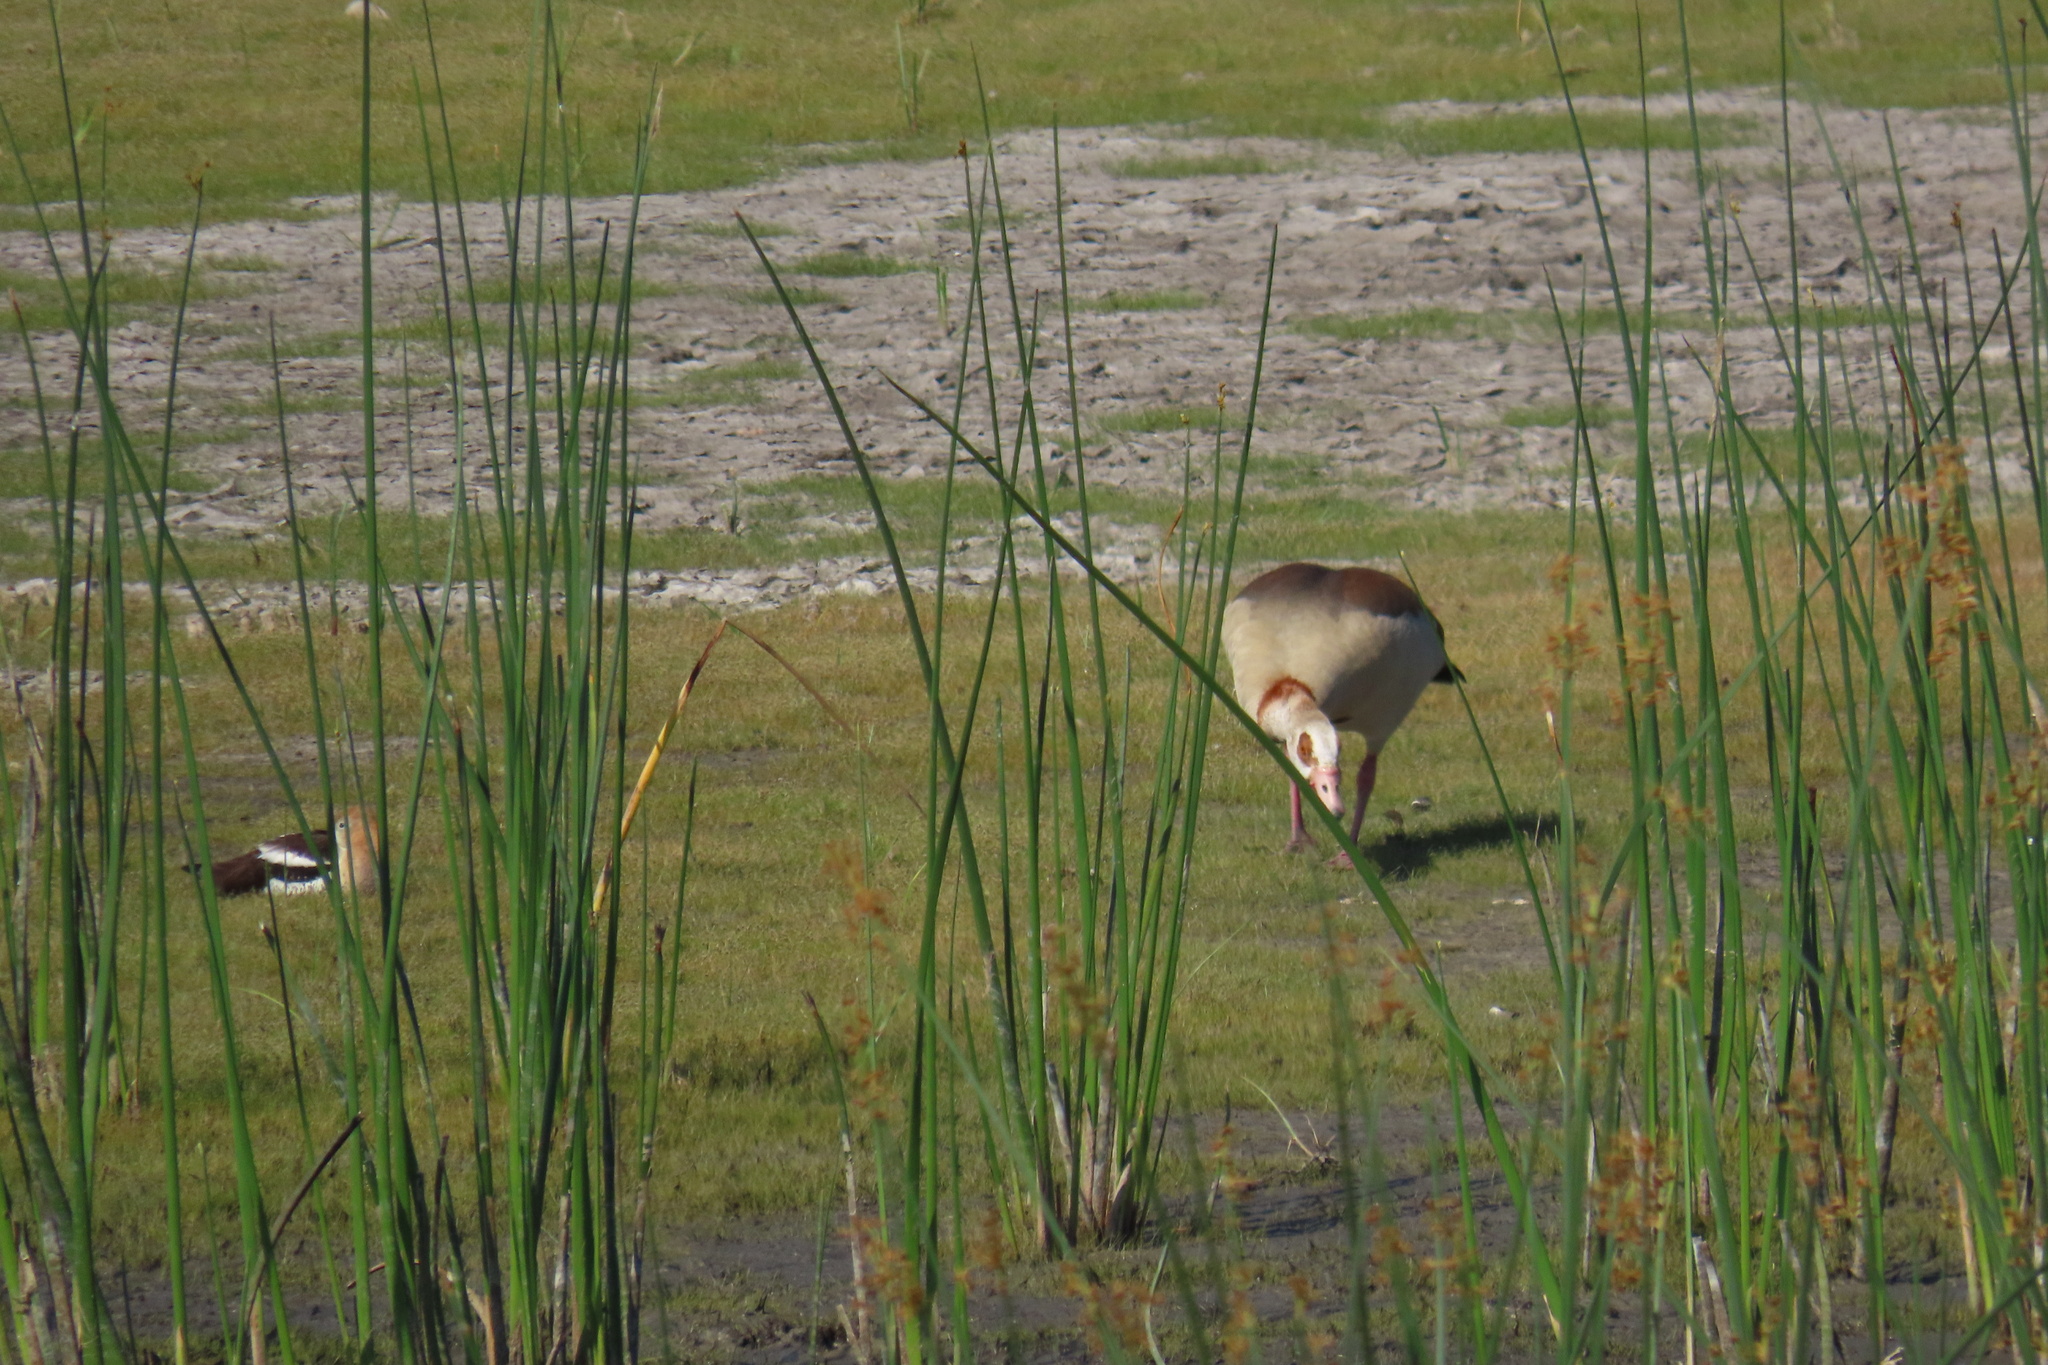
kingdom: Animalia
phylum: Chordata
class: Aves
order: Anseriformes
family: Anatidae
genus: Alopochen
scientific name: Alopochen aegyptiaca
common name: Egyptian goose
